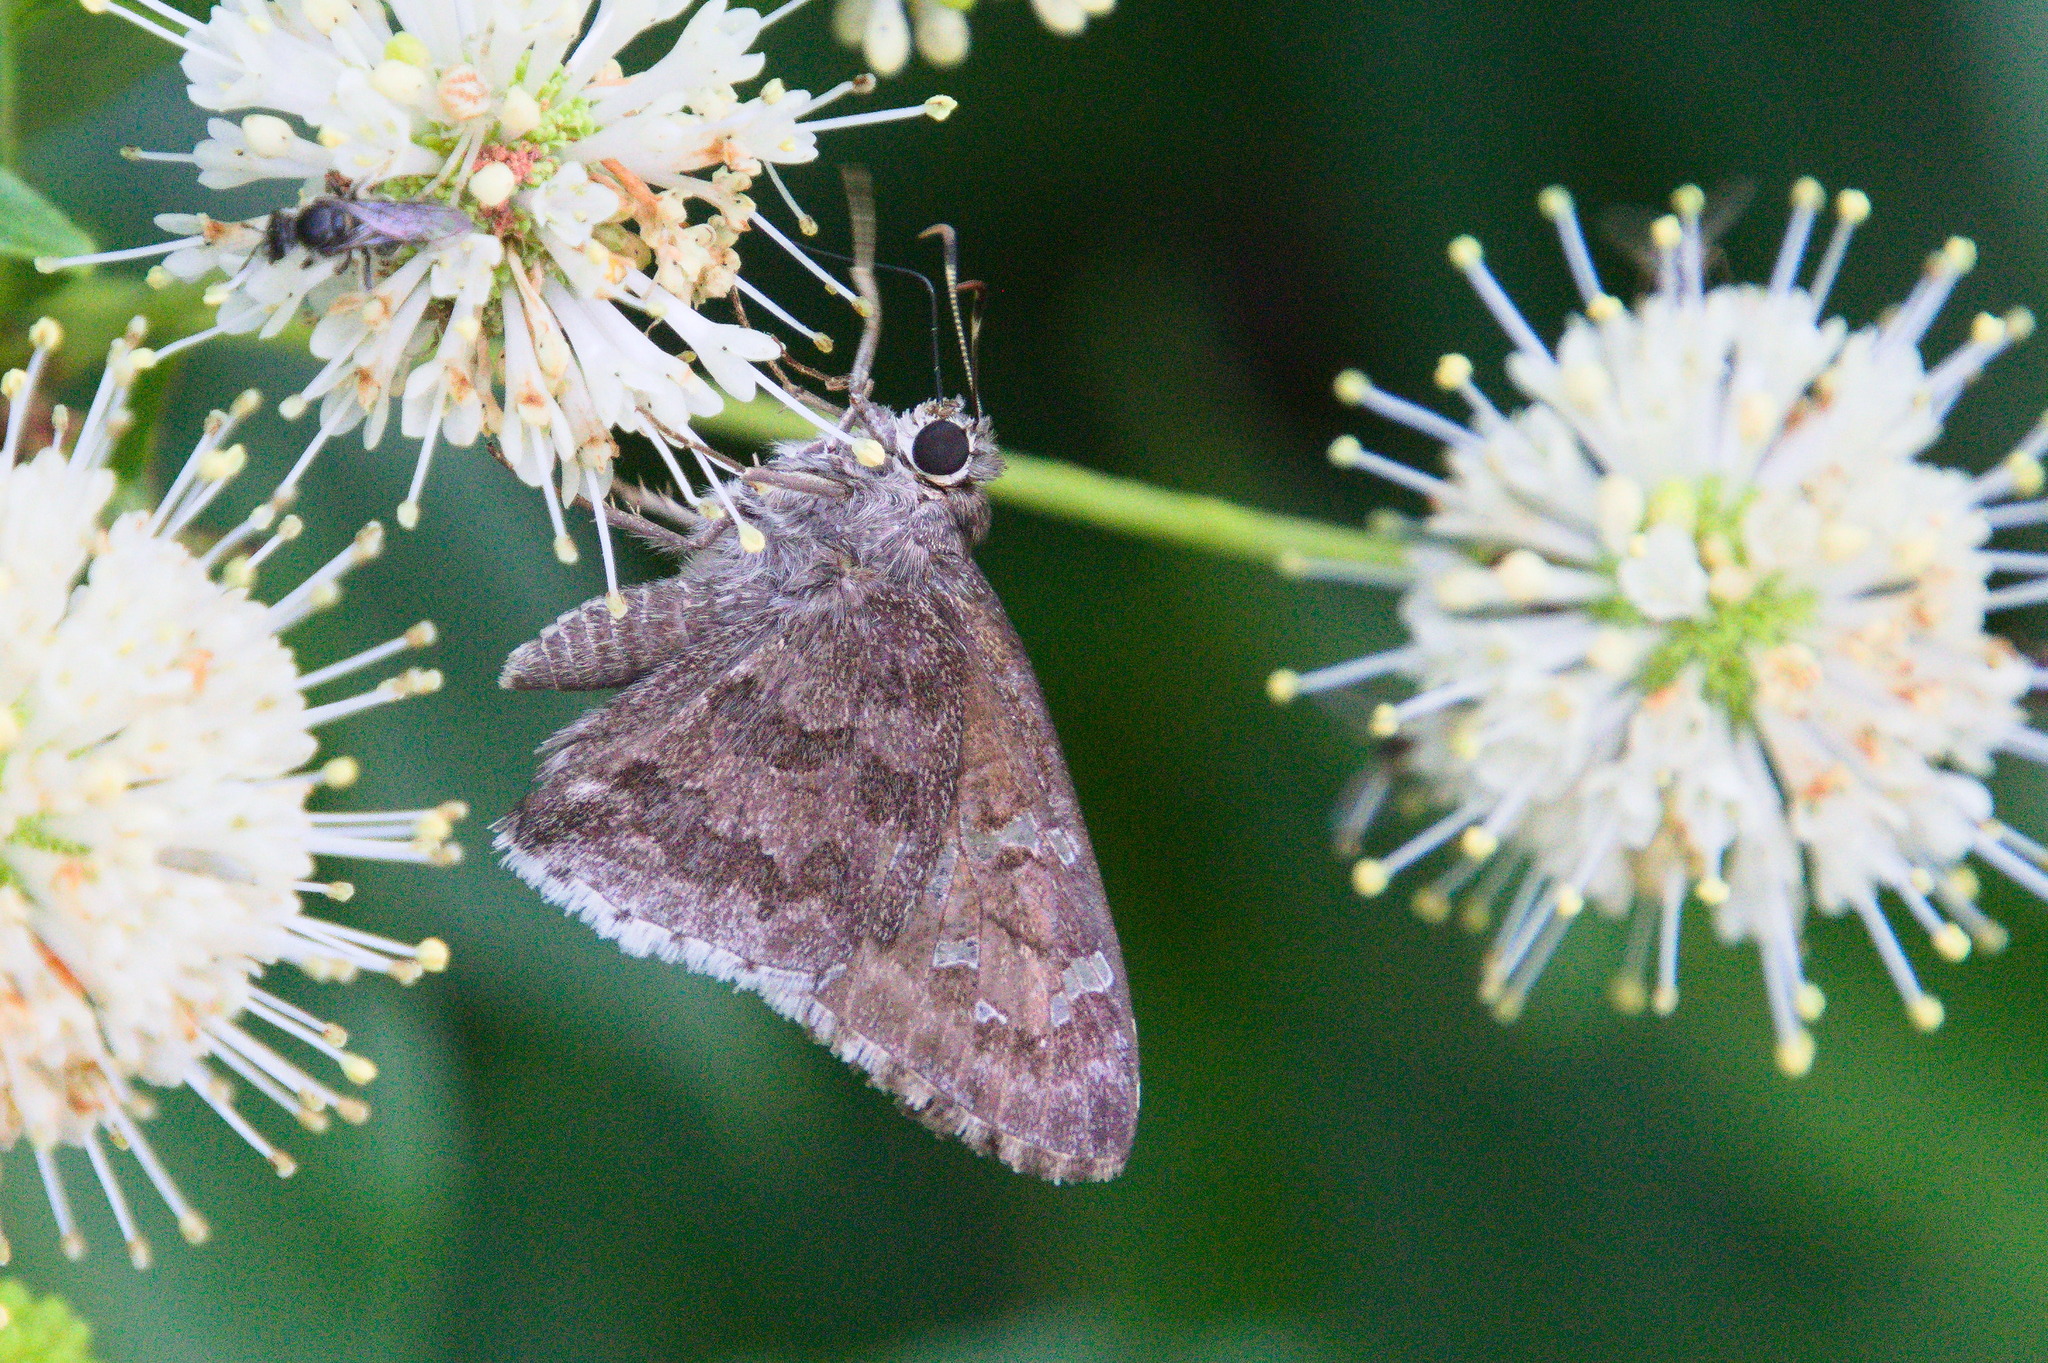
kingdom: Animalia
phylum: Arthropoda
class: Insecta
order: Lepidoptera
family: Hesperiidae
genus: Cogia
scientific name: Cogia hippalus
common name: Acacia skipper
